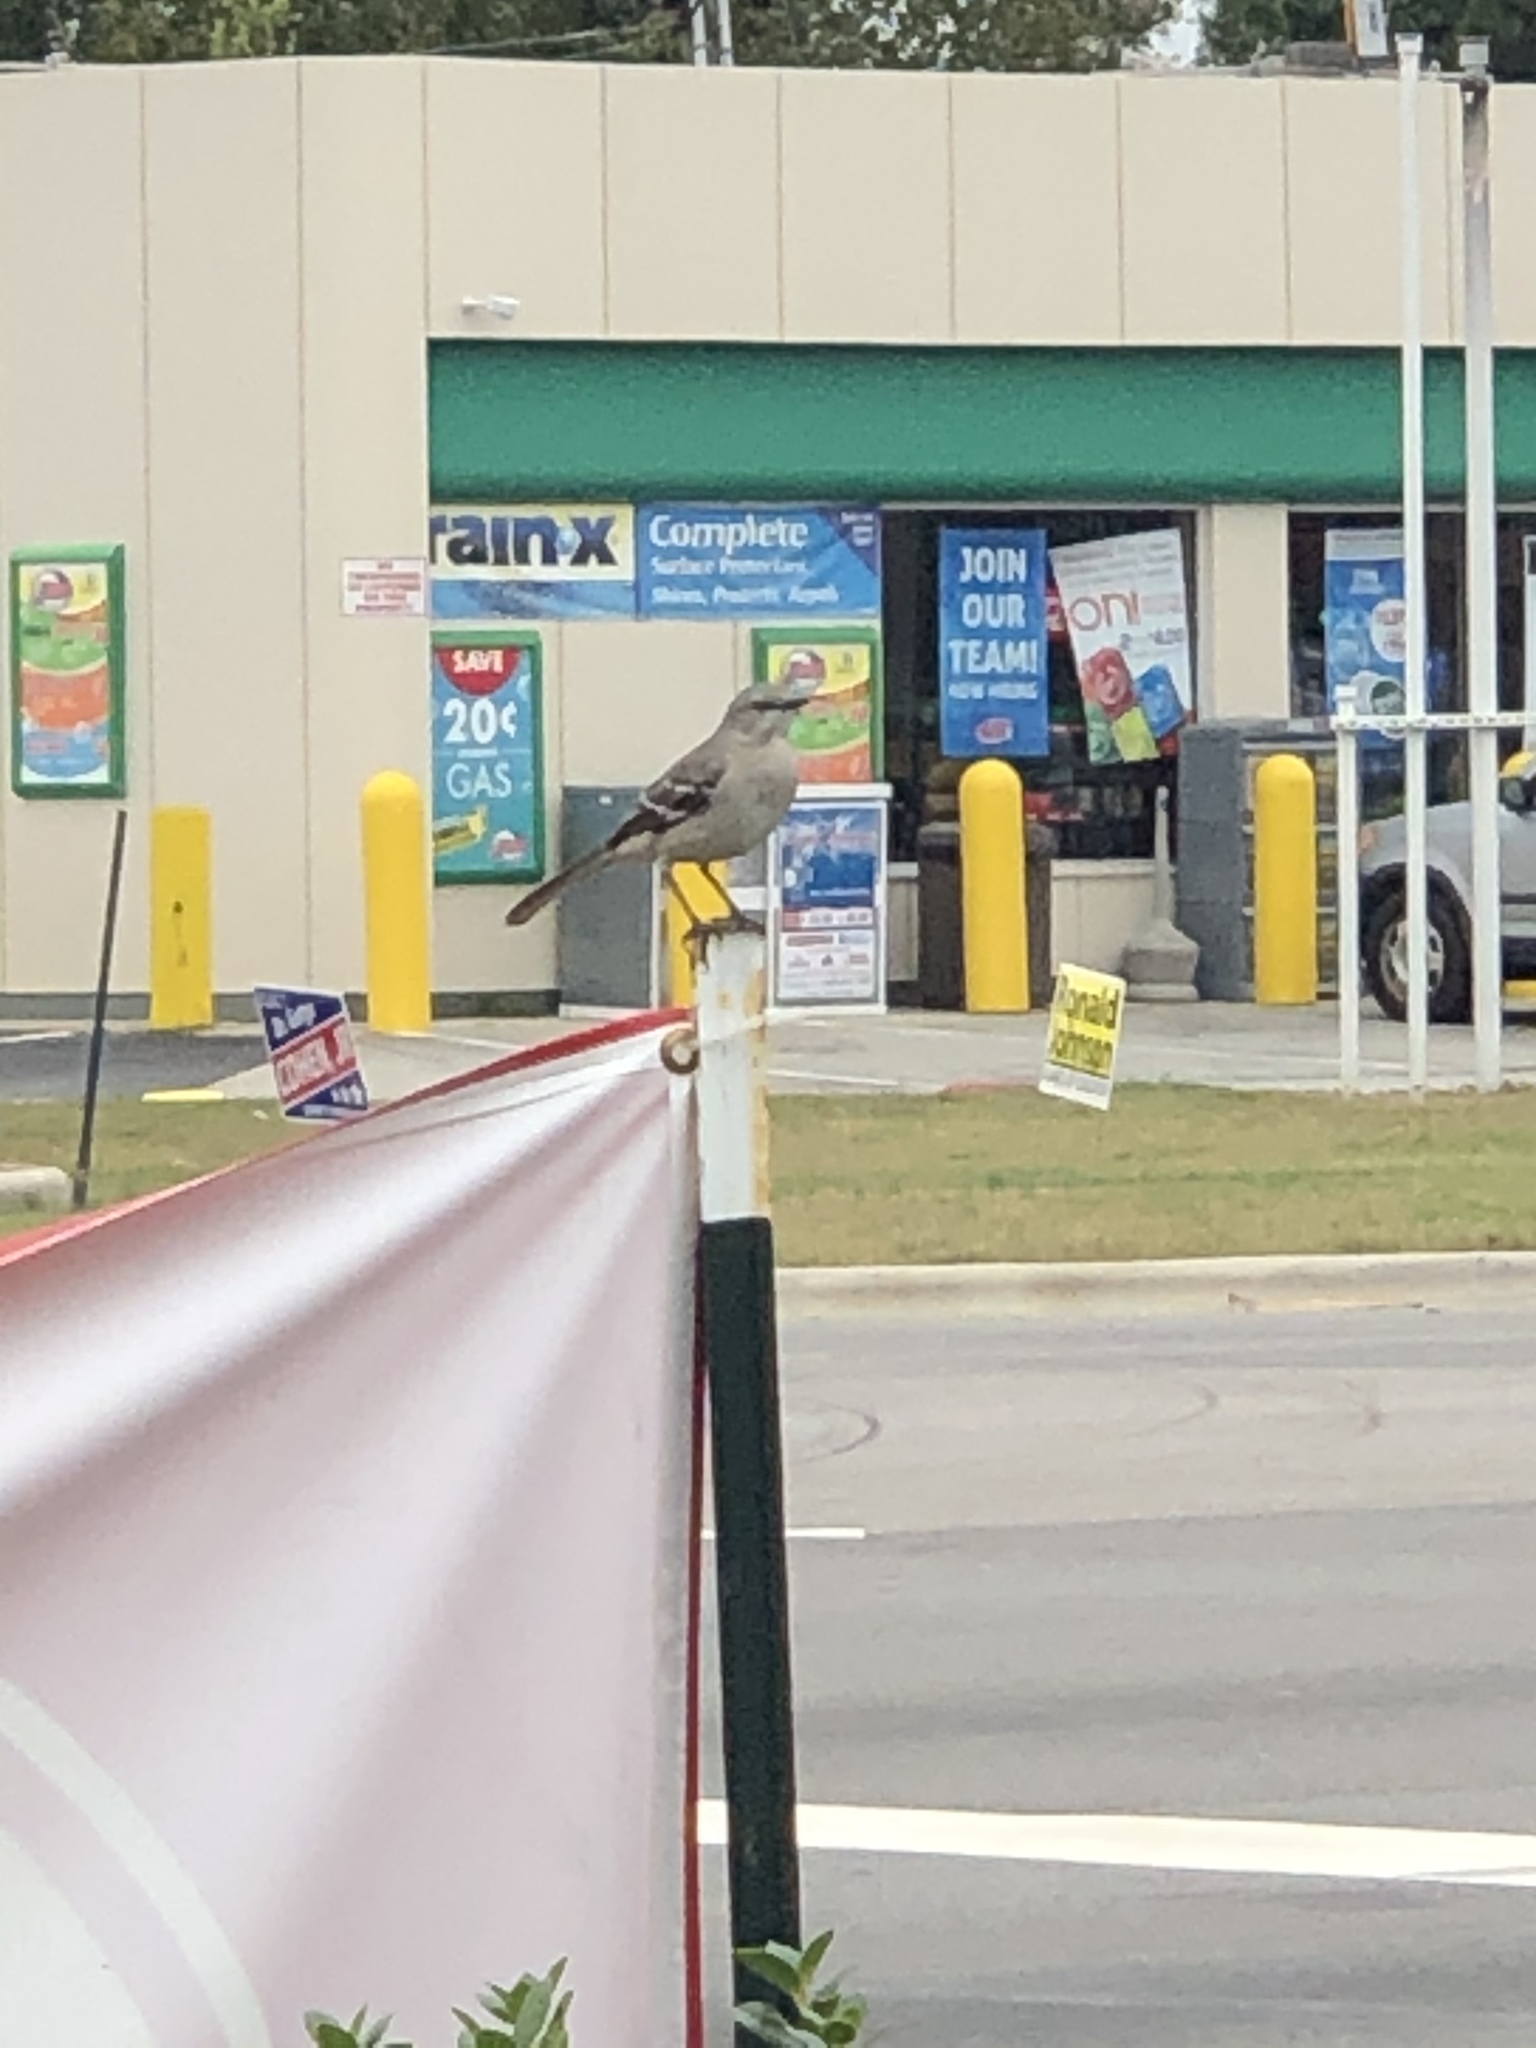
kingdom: Animalia
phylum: Chordata
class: Aves
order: Passeriformes
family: Mimidae
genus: Mimus
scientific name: Mimus polyglottos
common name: Northern mockingbird
